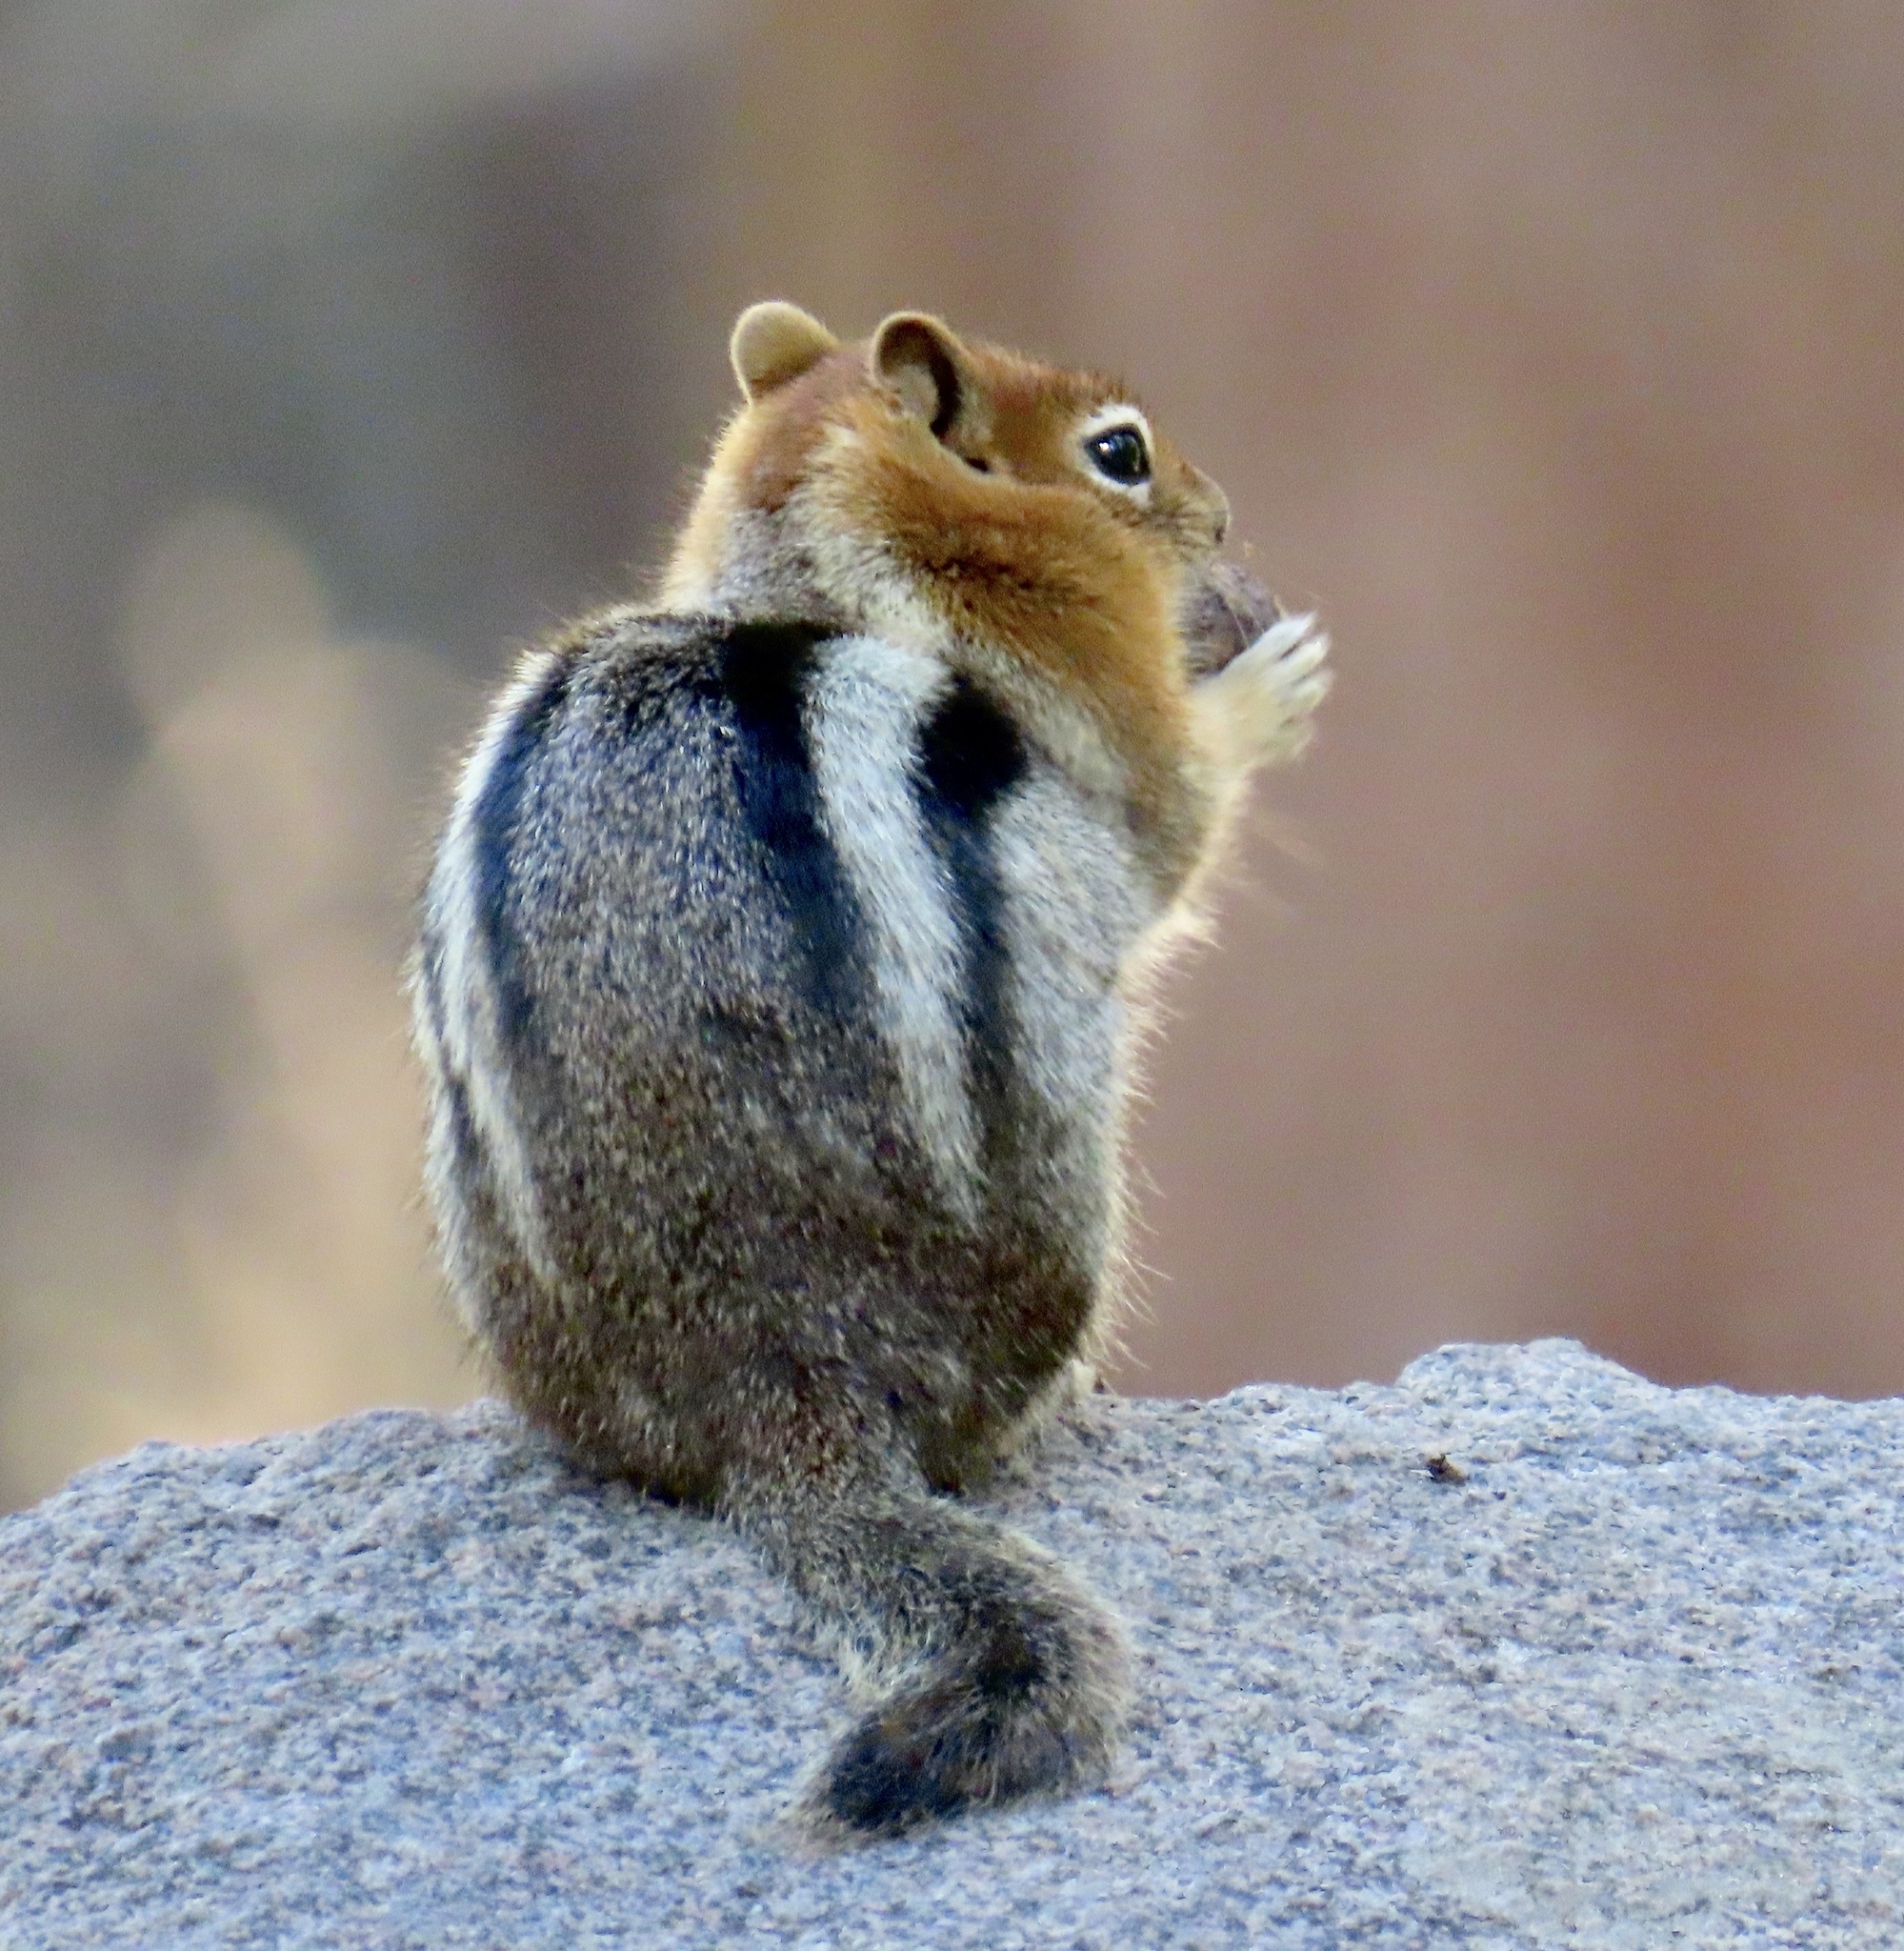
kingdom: Animalia
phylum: Chordata
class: Mammalia
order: Rodentia
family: Sciuridae
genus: Callospermophilus
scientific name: Callospermophilus lateralis
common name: Golden-mantled ground squirrel
